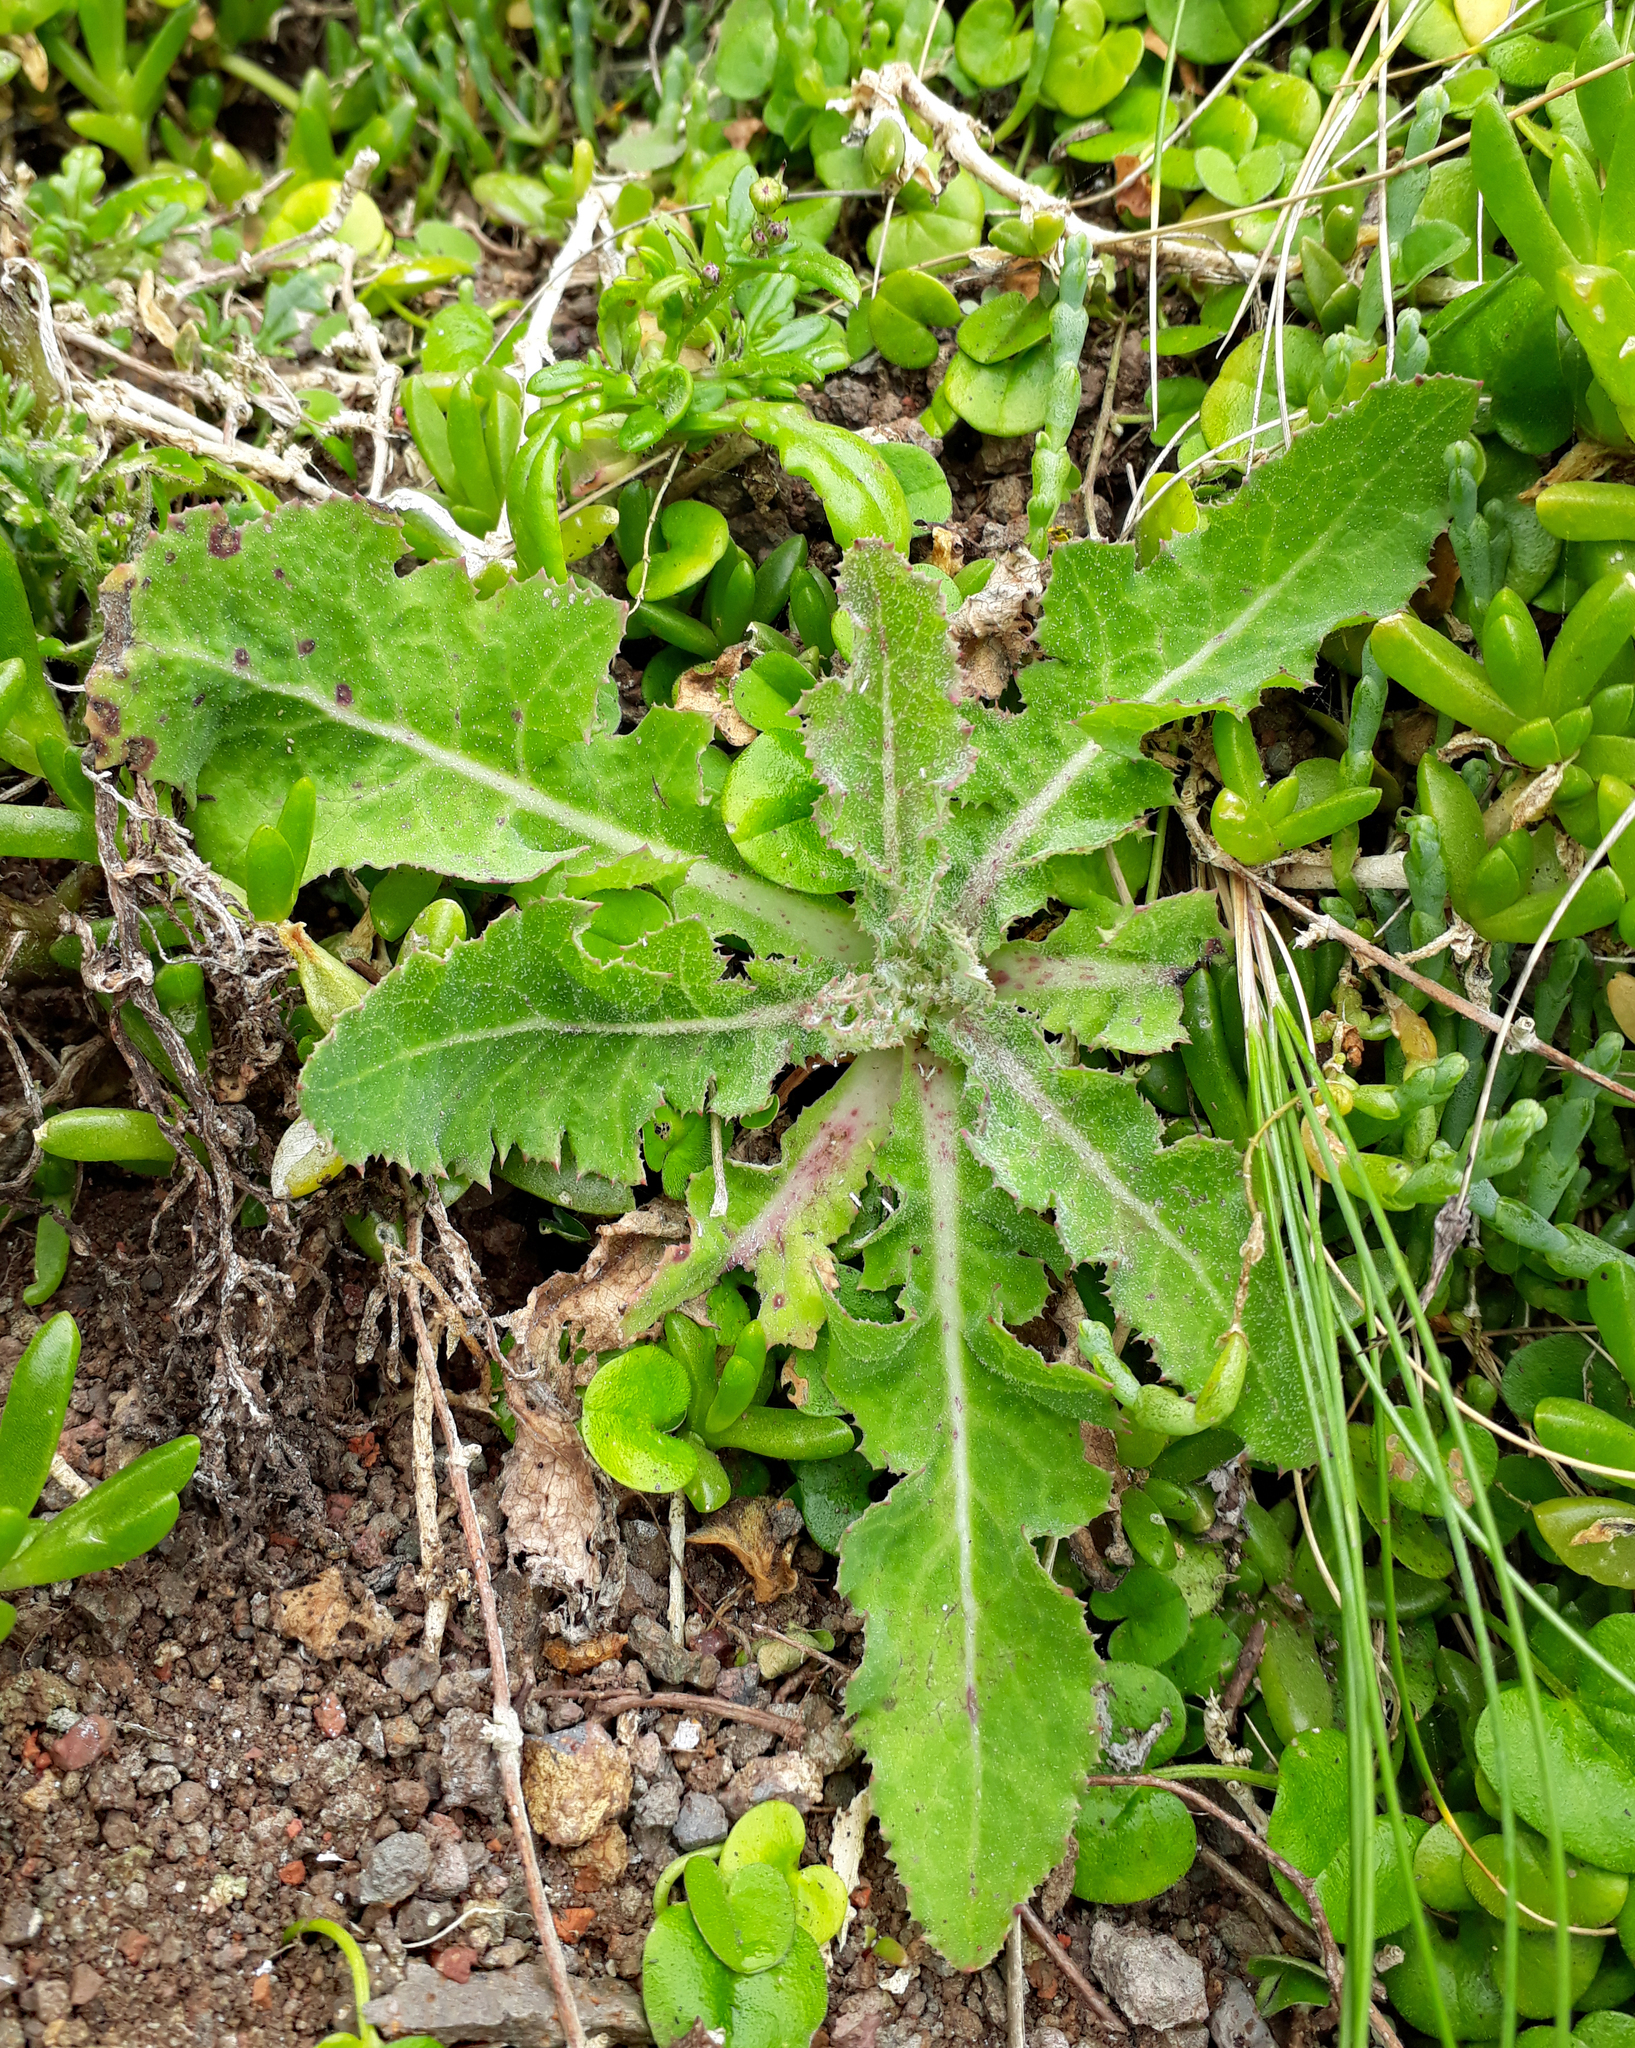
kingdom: Plantae
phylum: Tracheophyta
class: Magnoliopsida
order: Asterales
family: Asteraceae
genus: Sonchus
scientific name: Sonchus kirkii
